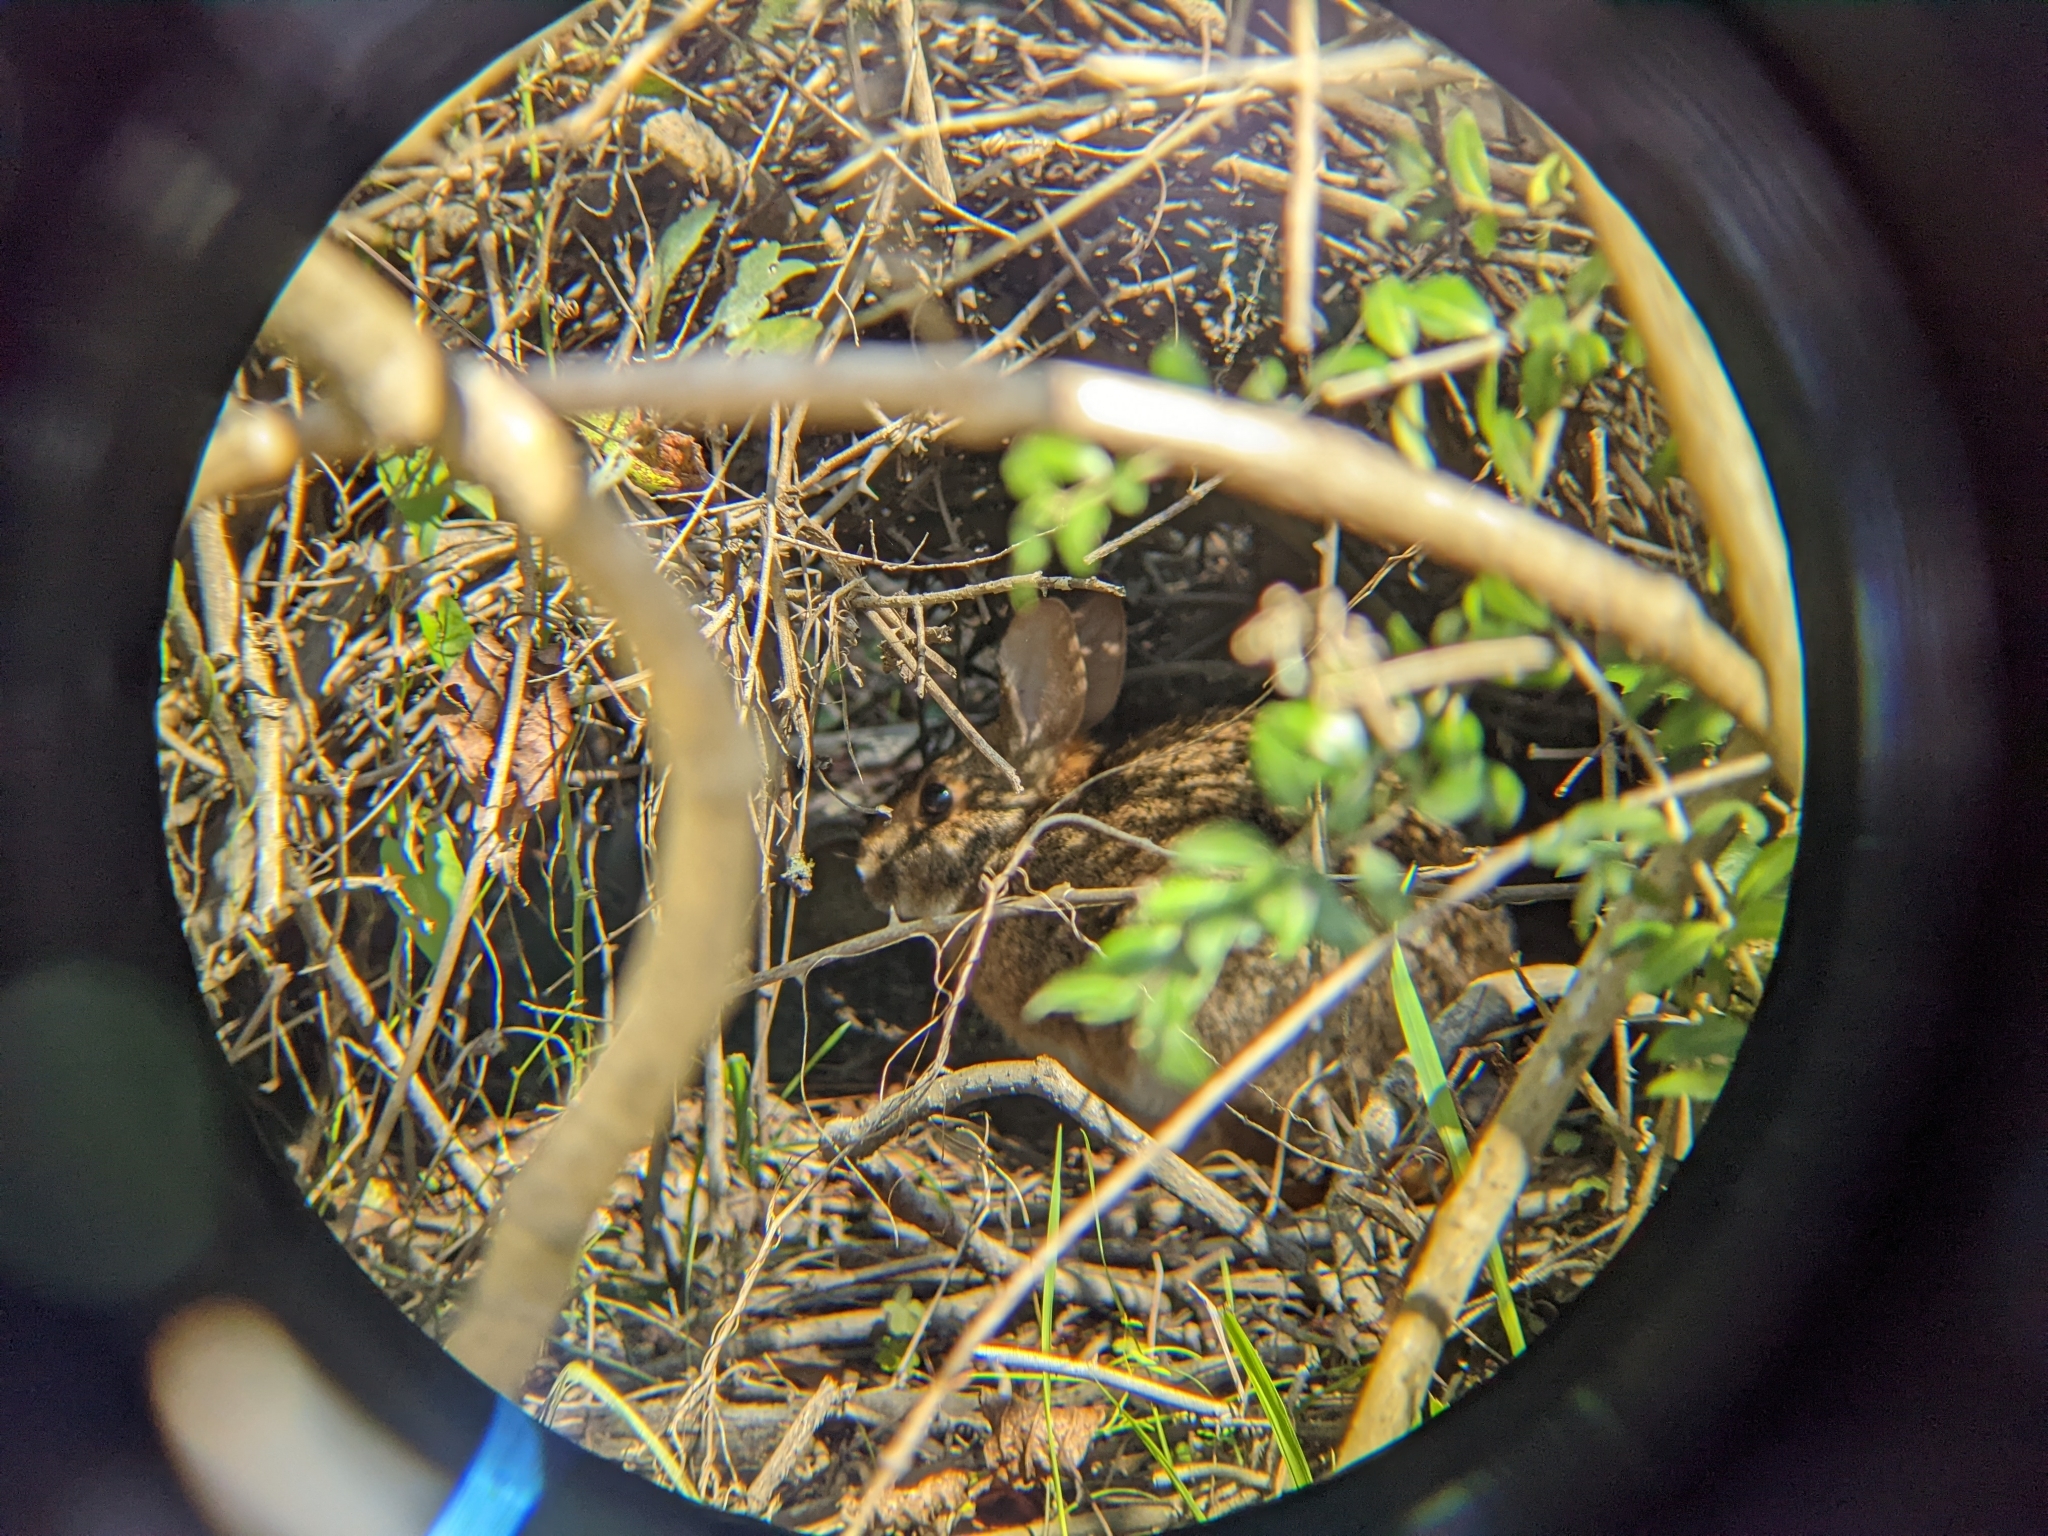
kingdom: Animalia
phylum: Chordata
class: Mammalia
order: Lagomorpha
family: Leporidae
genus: Sylvilagus
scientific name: Sylvilagus aquaticus
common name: Swamp rabbit
